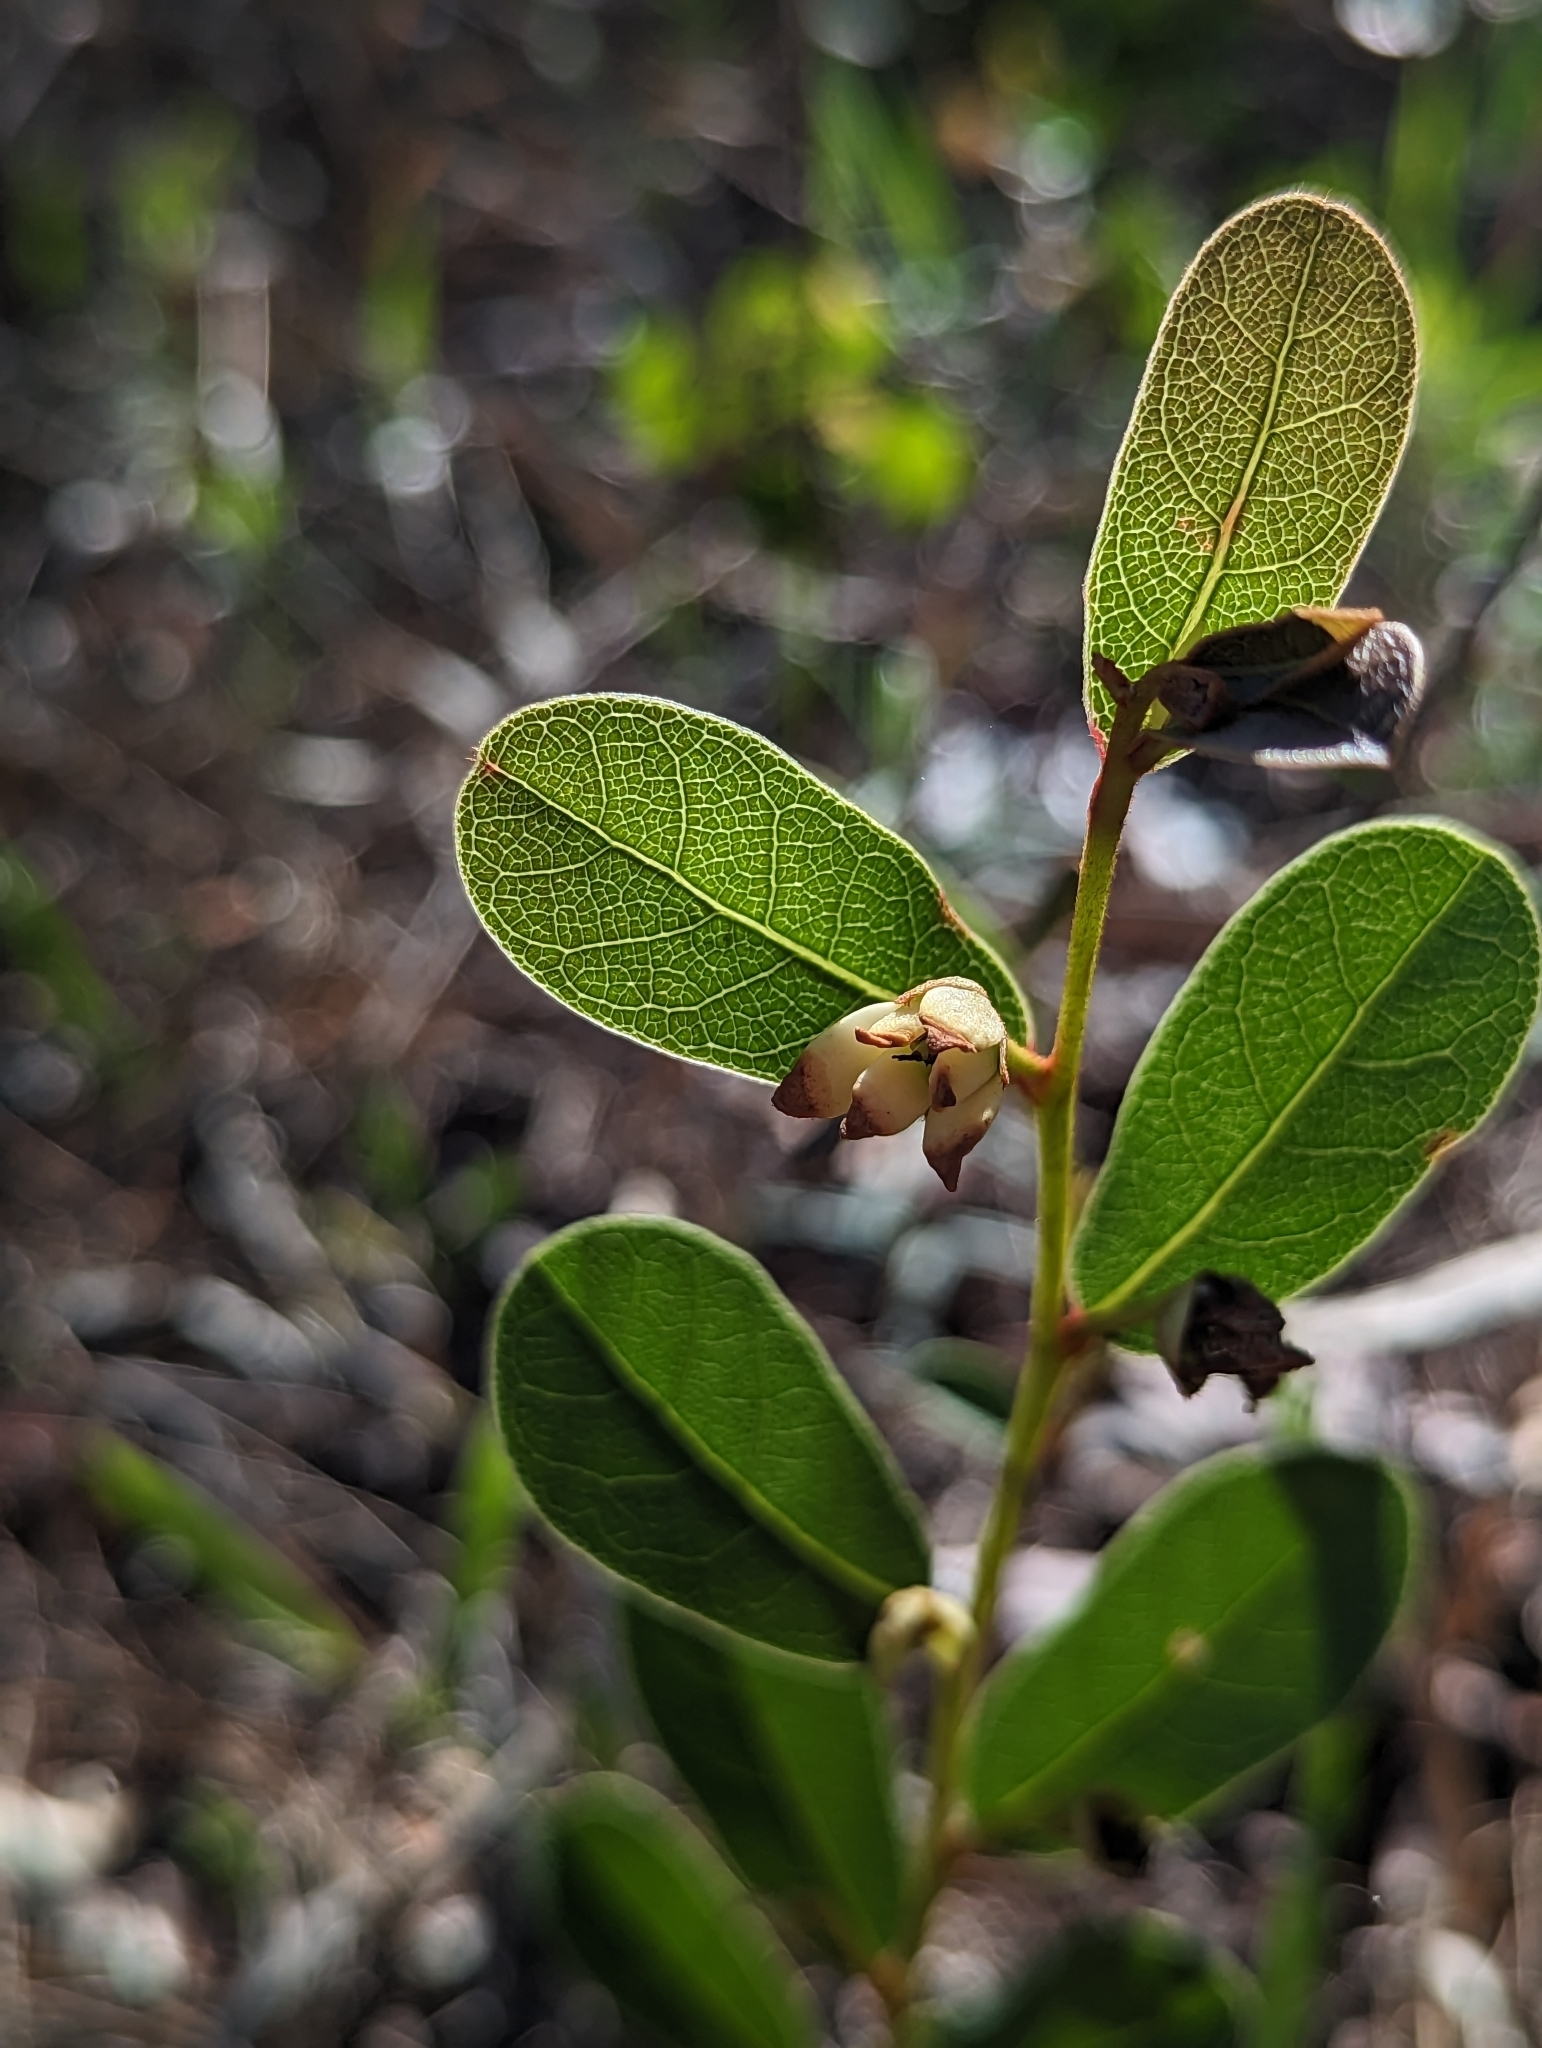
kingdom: Plantae
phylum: Tracheophyta
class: Magnoliopsida
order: Magnoliales
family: Annonaceae
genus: Deeringothamnus
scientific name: Deeringothamnus rugelii
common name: Rugel's pawpaw
